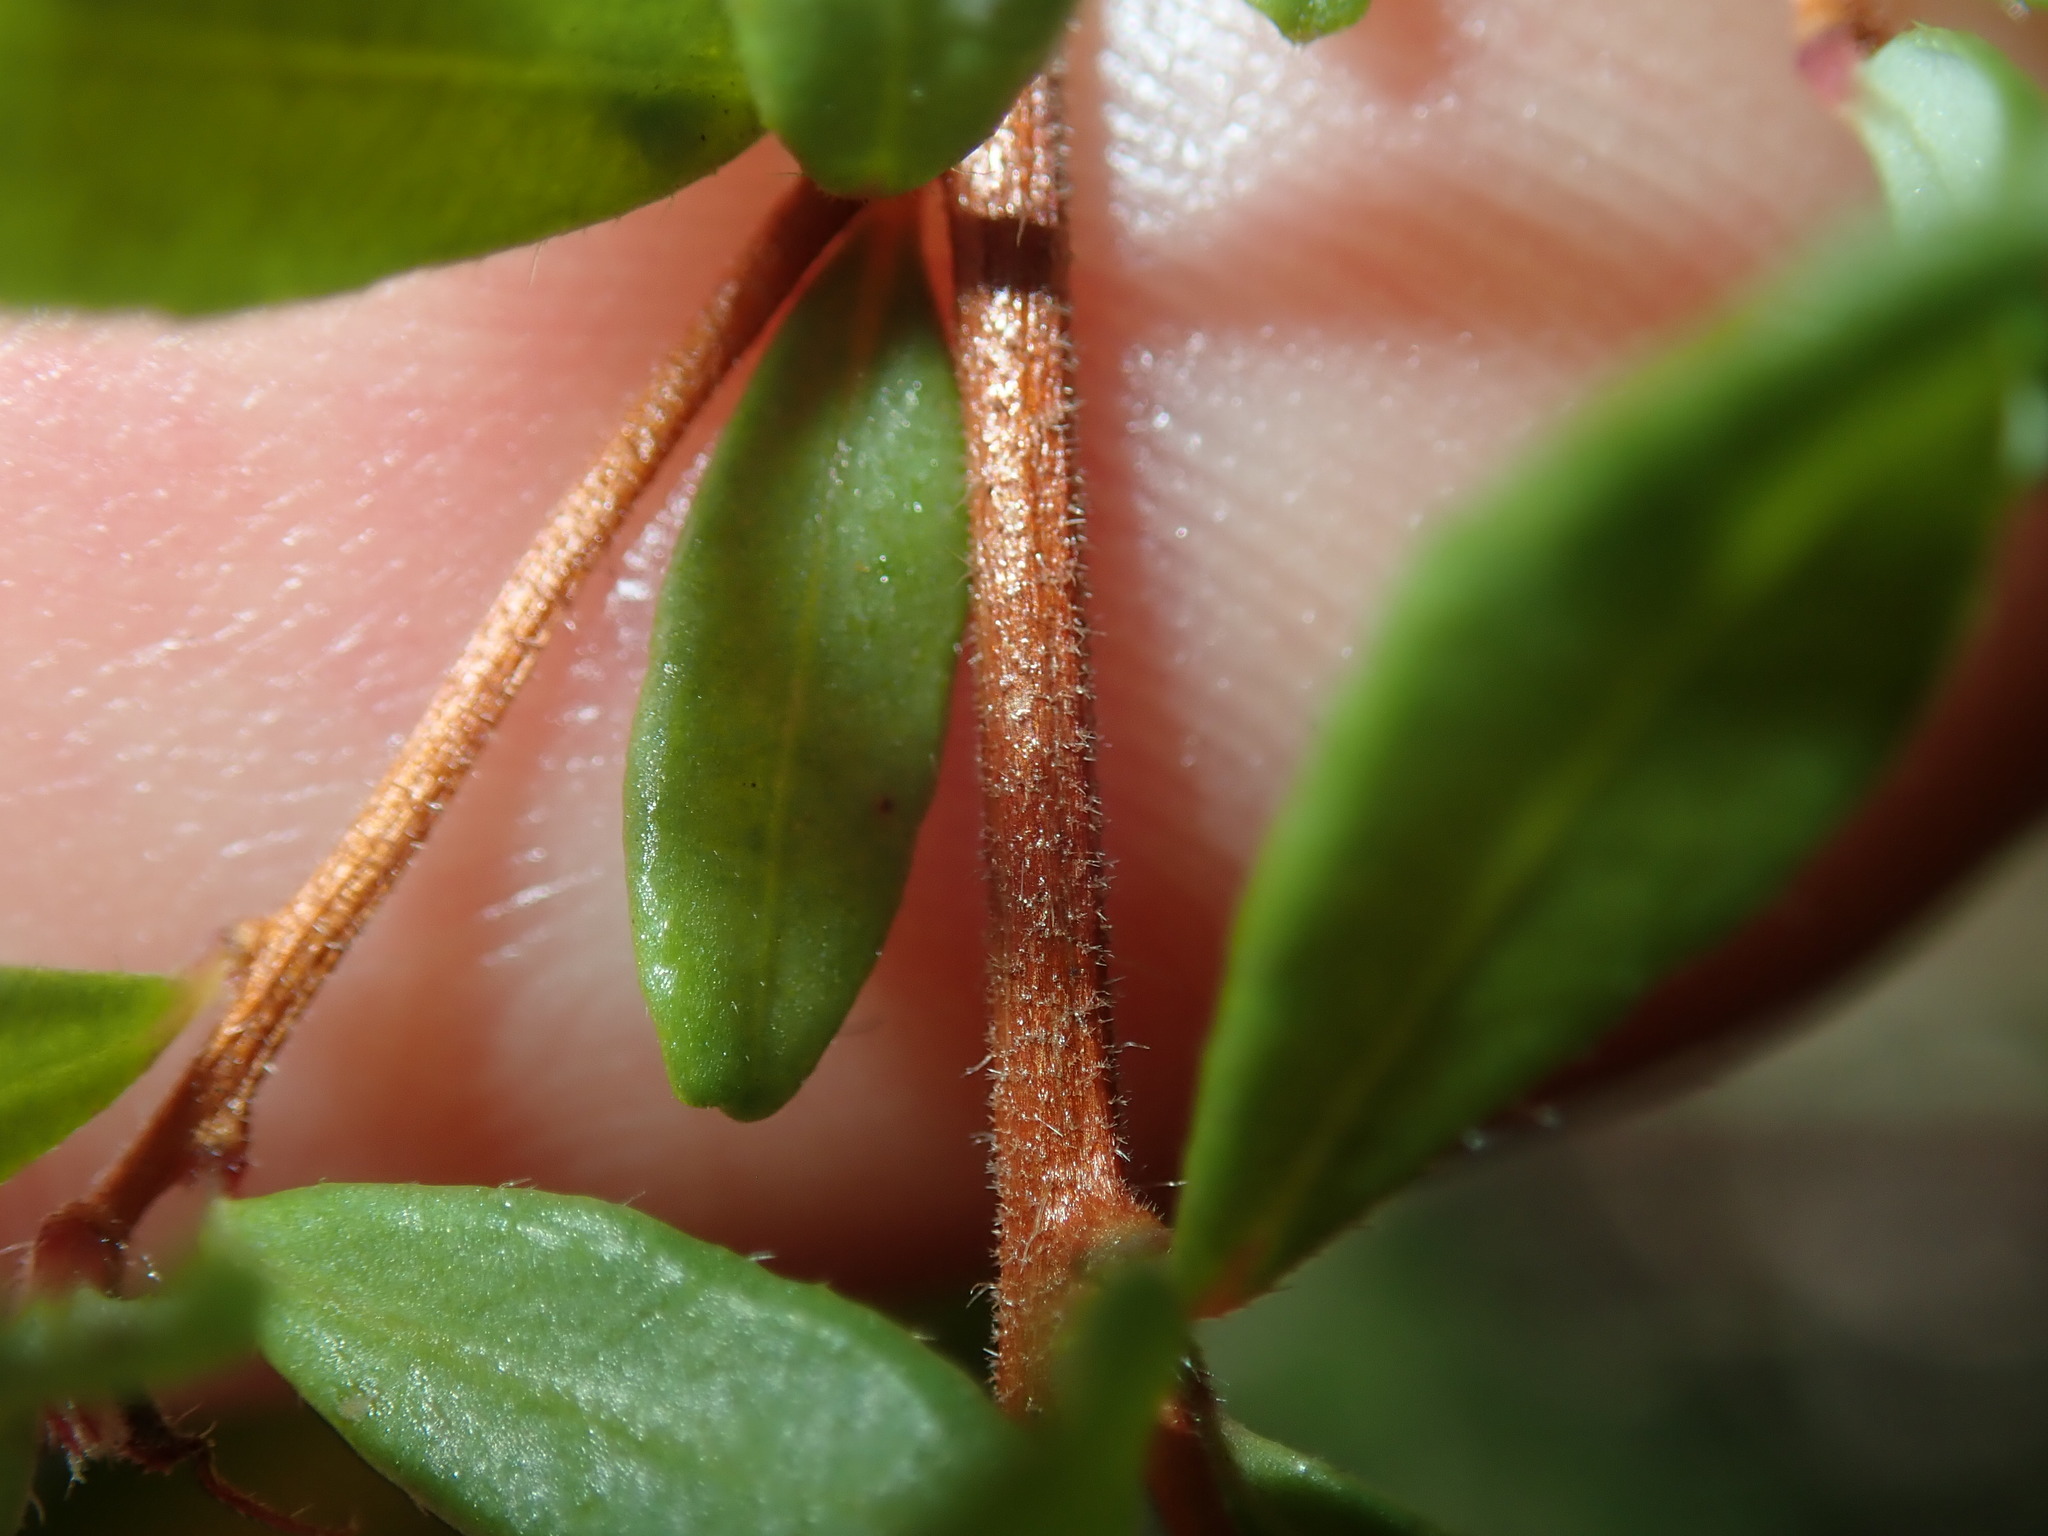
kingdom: Plantae
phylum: Tracheophyta
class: Magnoliopsida
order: Dilleniales
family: Dilleniaceae
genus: Hibbertia
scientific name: Hibbertia empetrifolia
